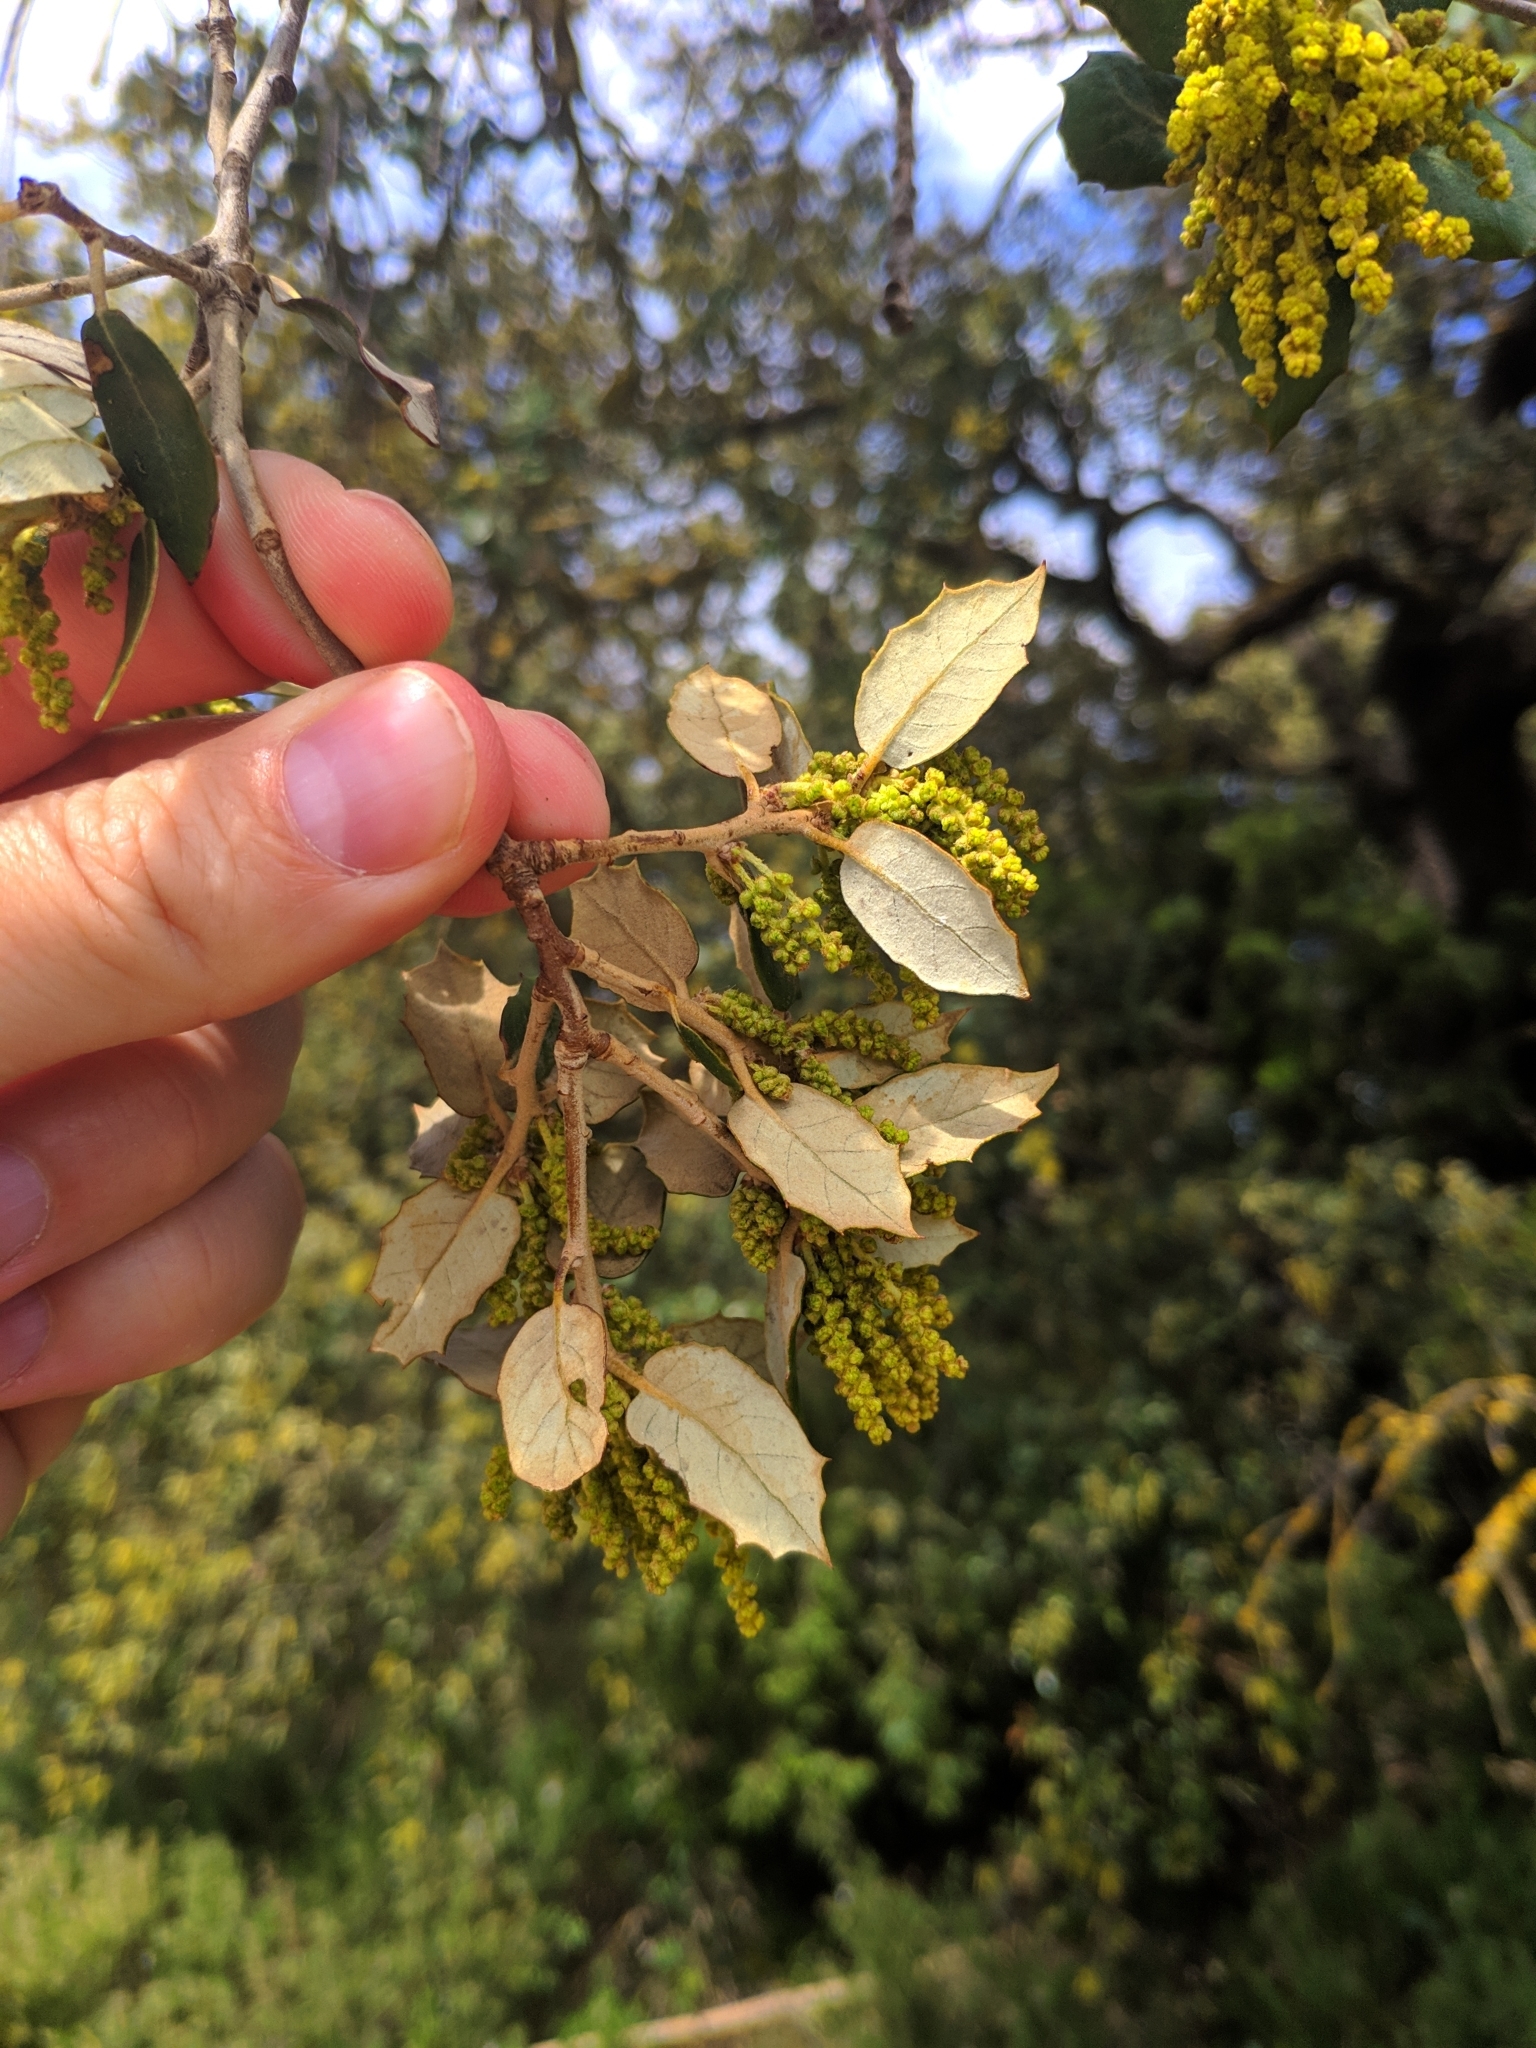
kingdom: Plantae
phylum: Tracheophyta
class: Magnoliopsida
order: Fagales
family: Fagaceae
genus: Quercus
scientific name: Quercus rotundifolia
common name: Holm oak
